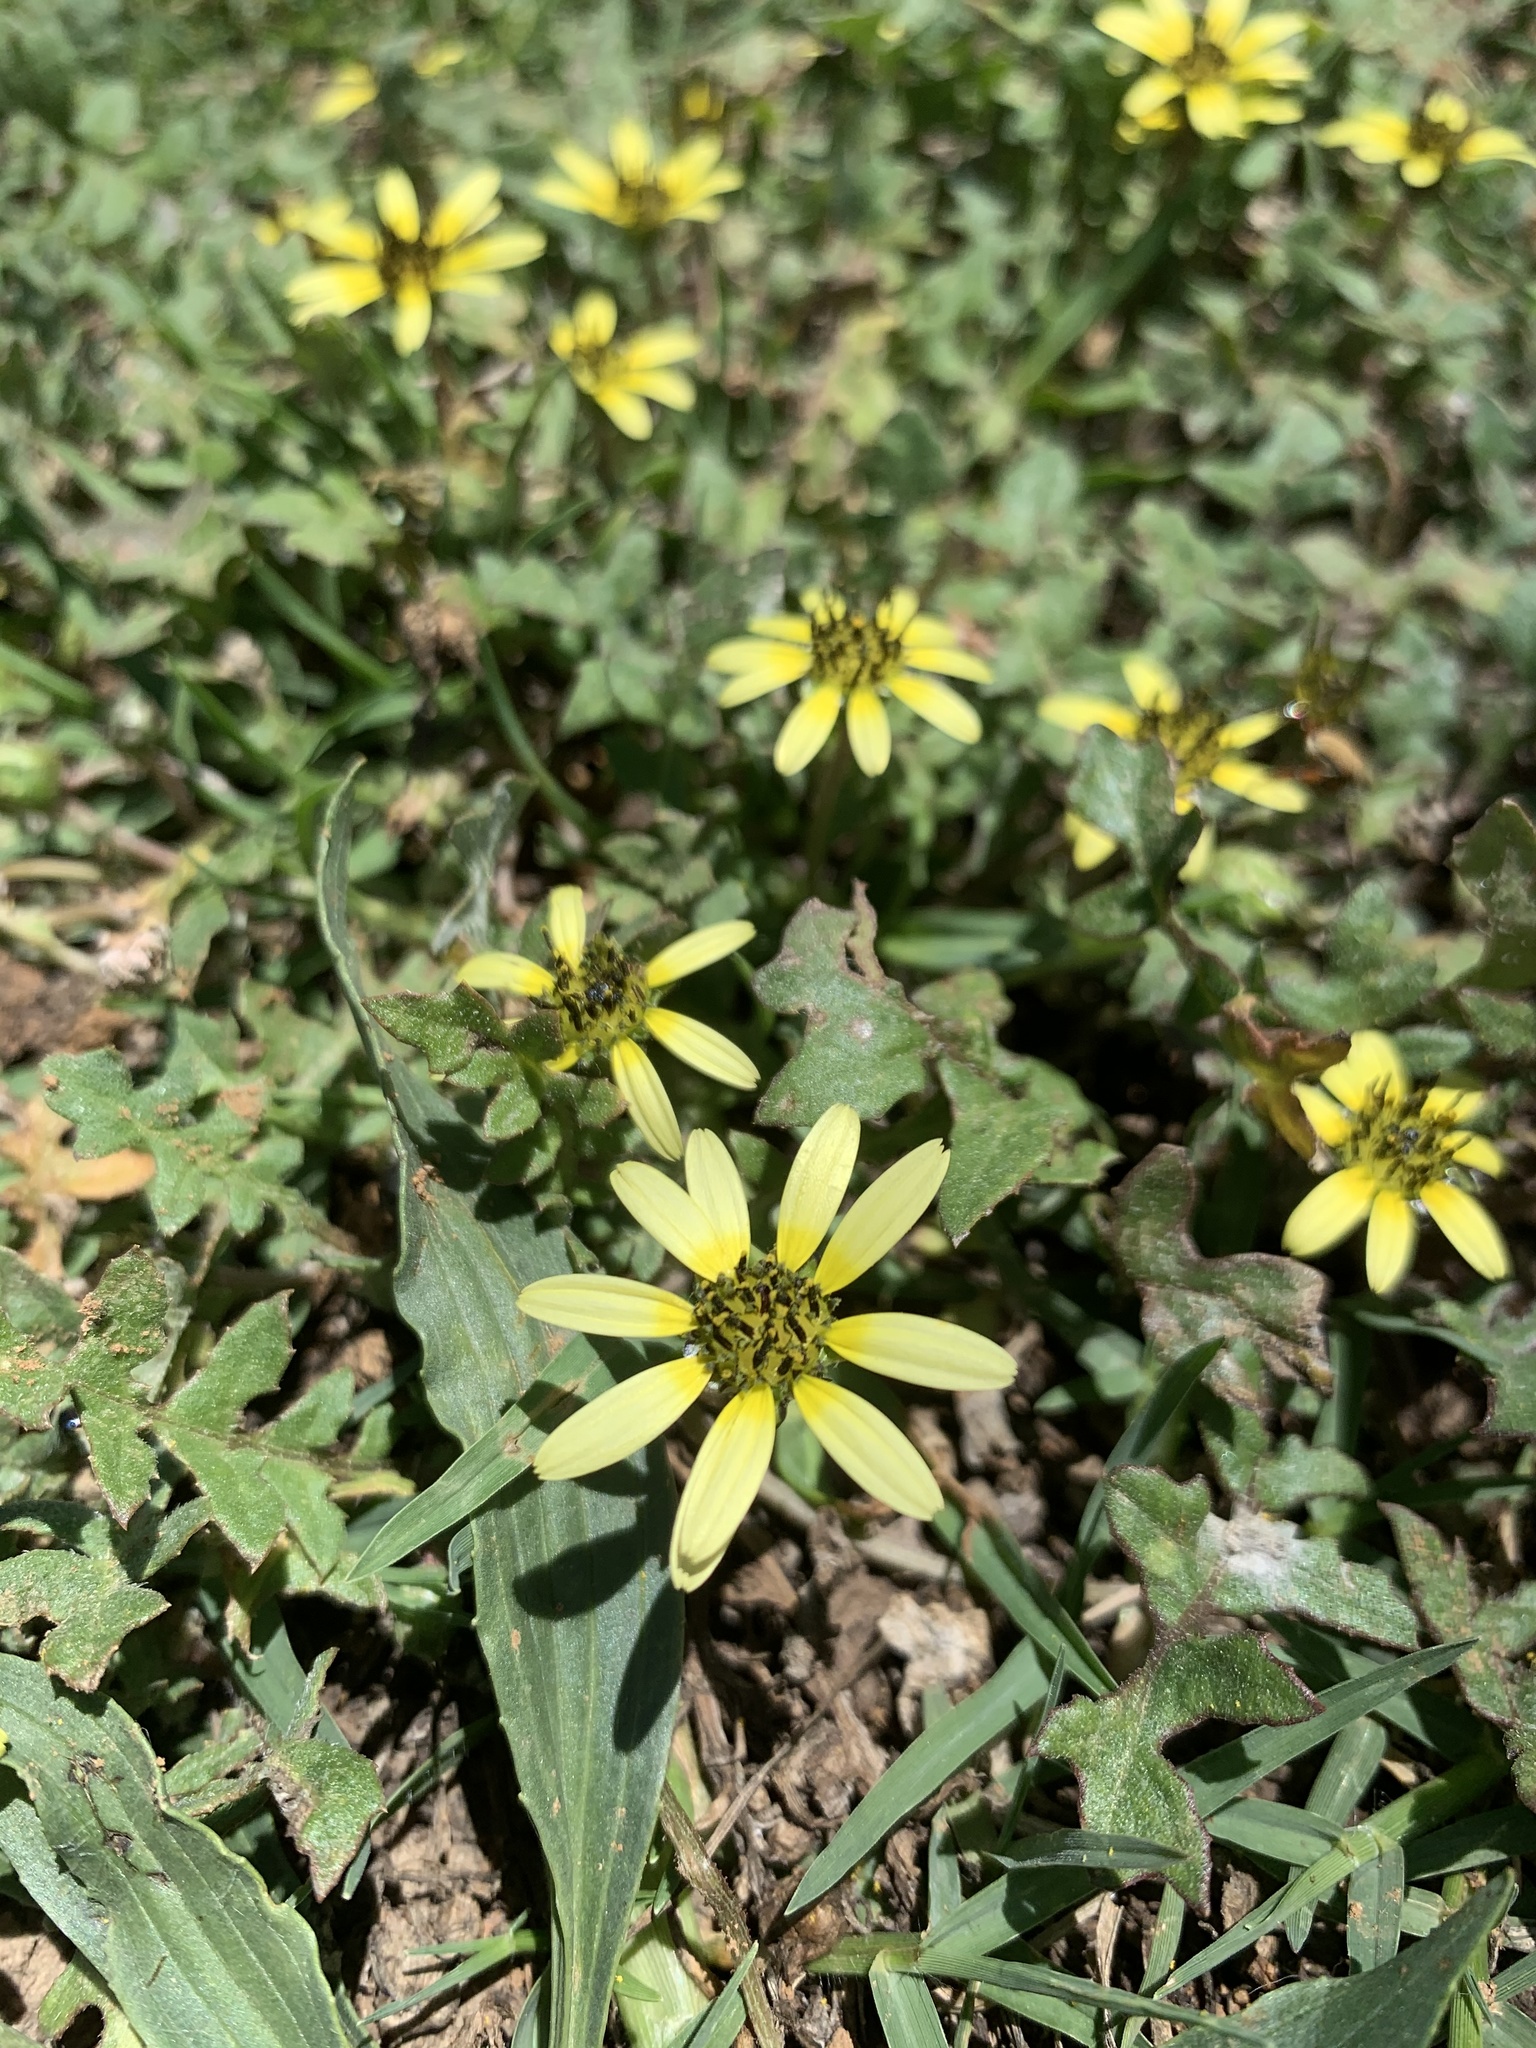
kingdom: Plantae
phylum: Tracheophyta
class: Magnoliopsida
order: Asterales
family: Asteraceae
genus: Arctotheca
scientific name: Arctotheca calendula
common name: Capeweed
